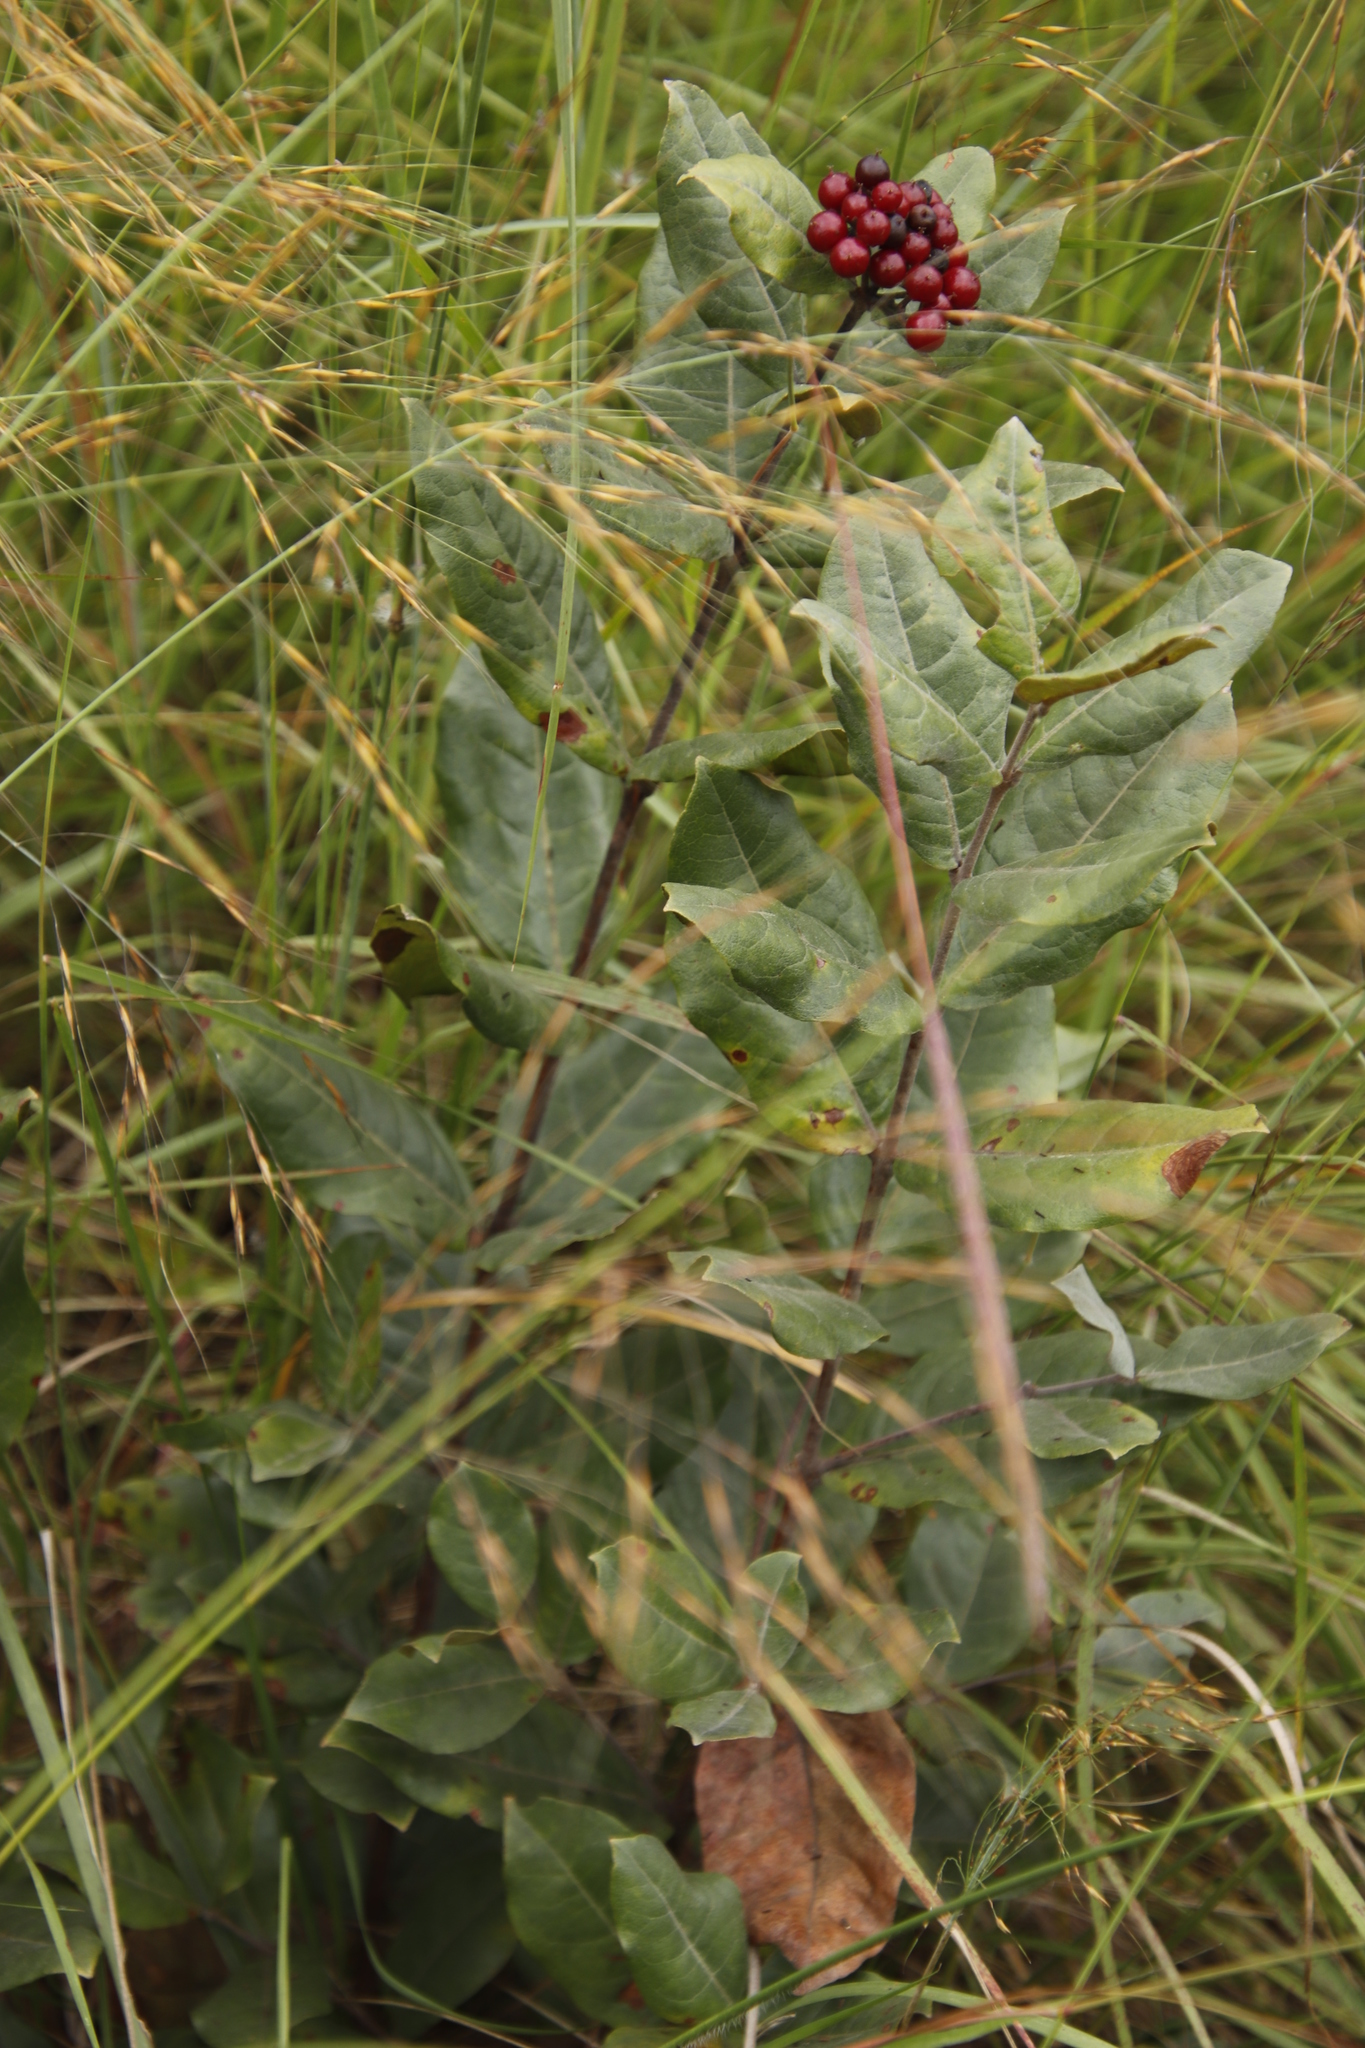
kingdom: Plantae
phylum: Tracheophyta
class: Magnoliopsida
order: Malpighiales
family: Hypericaceae
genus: Psorospermum
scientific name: Psorospermum febrifugum
